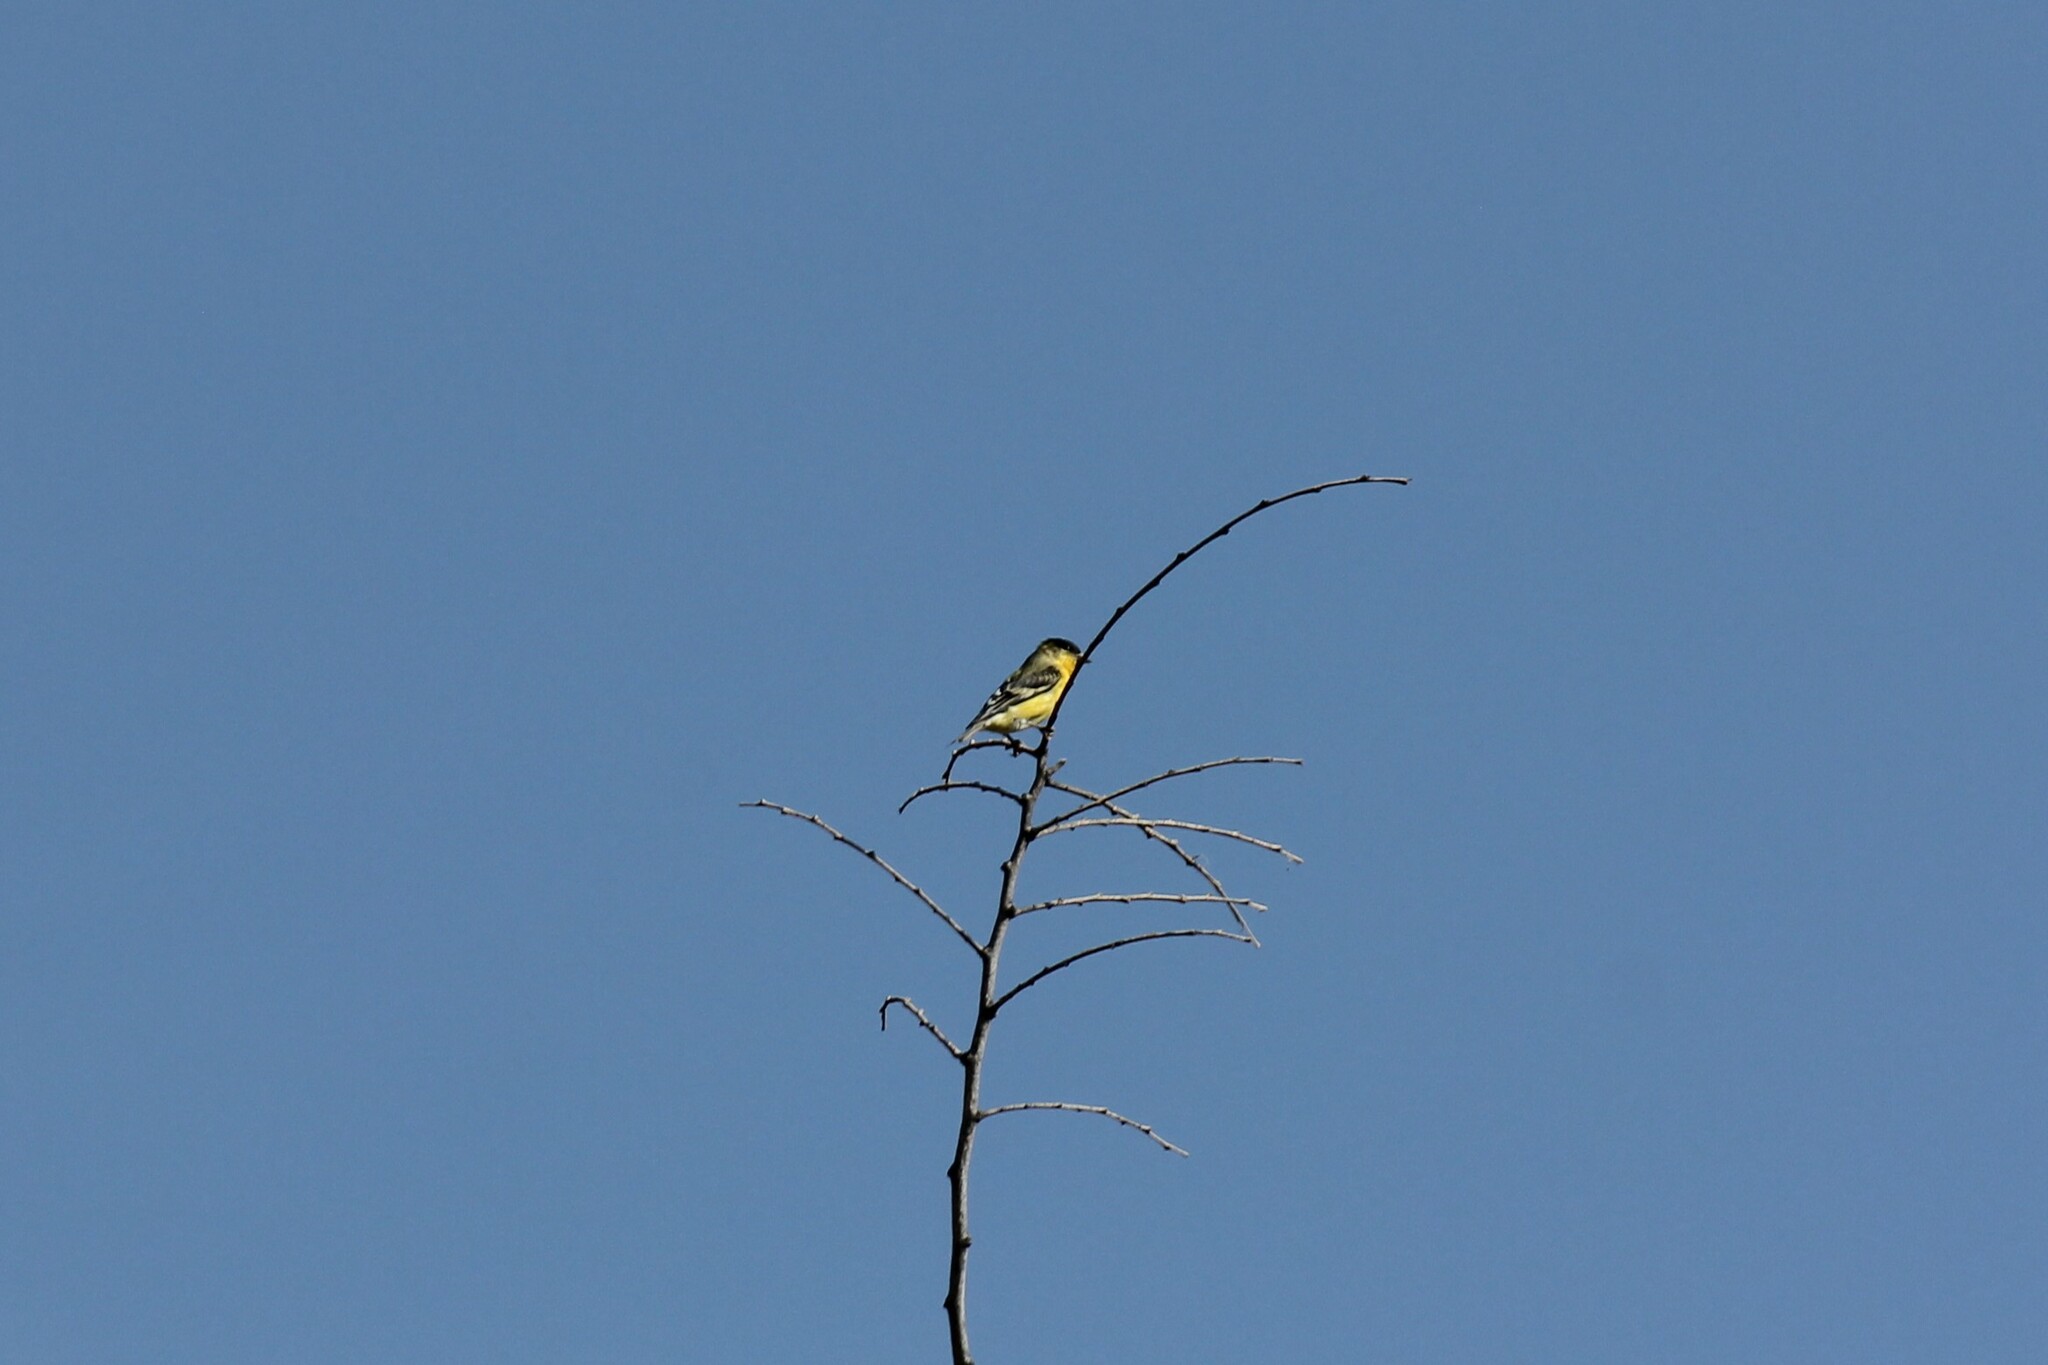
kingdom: Animalia
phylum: Chordata
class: Aves
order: Passeriformes
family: Fringillidae
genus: Spinus
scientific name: Spinus psaltria
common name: Lesser goldfinch
